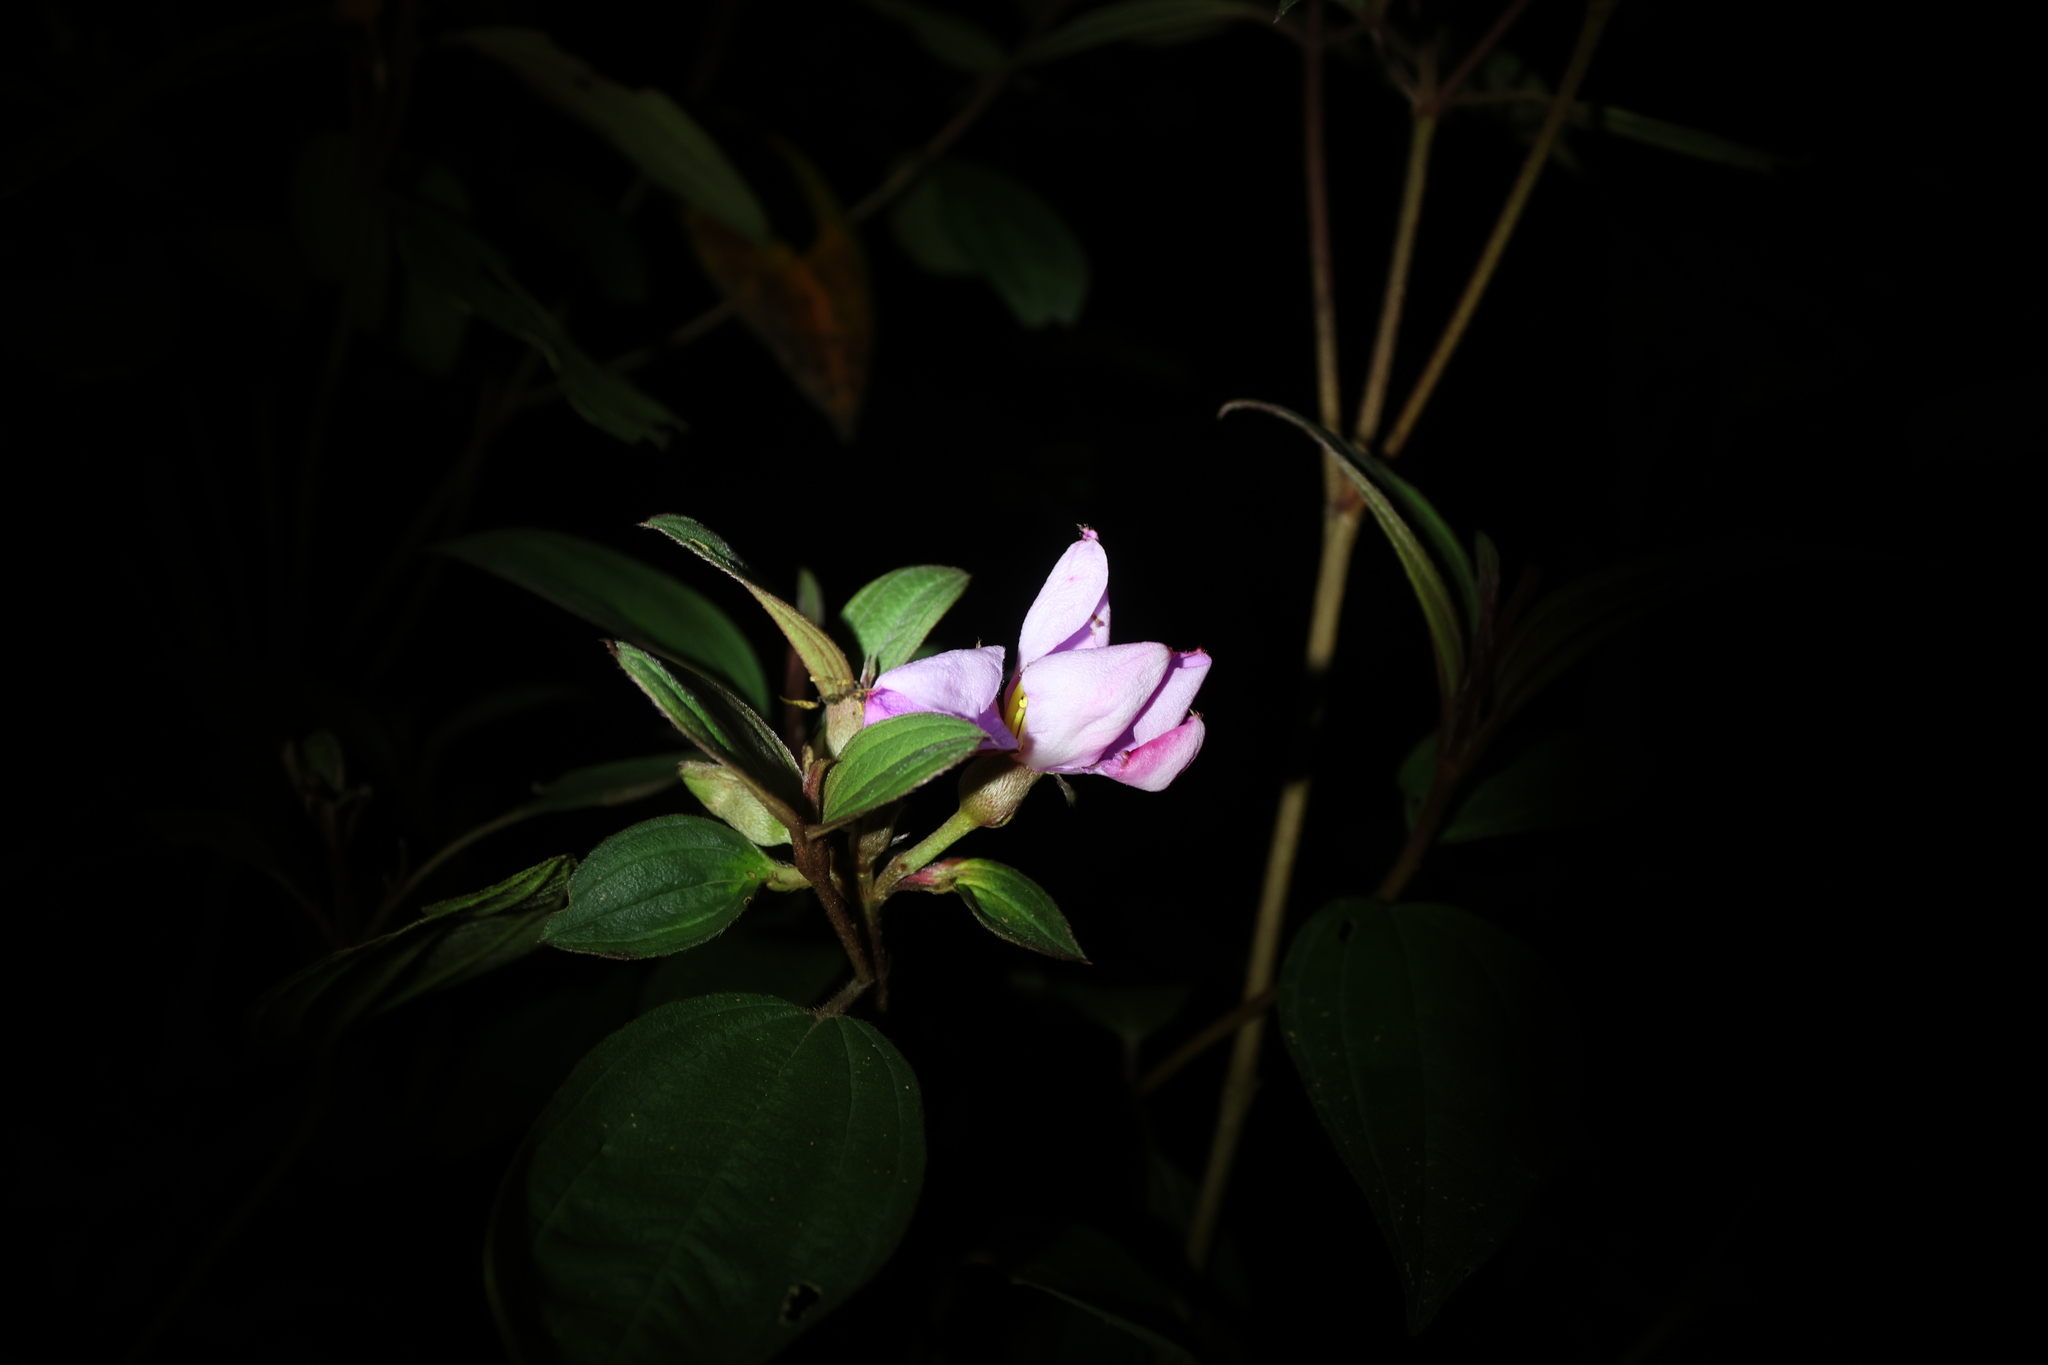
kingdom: Plantae
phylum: Tracheophyta
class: Magnoliopsida
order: Myrtales
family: Melastomataceae
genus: Melastoma
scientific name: Melastoma malabathricum
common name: Indian-rhododendron
